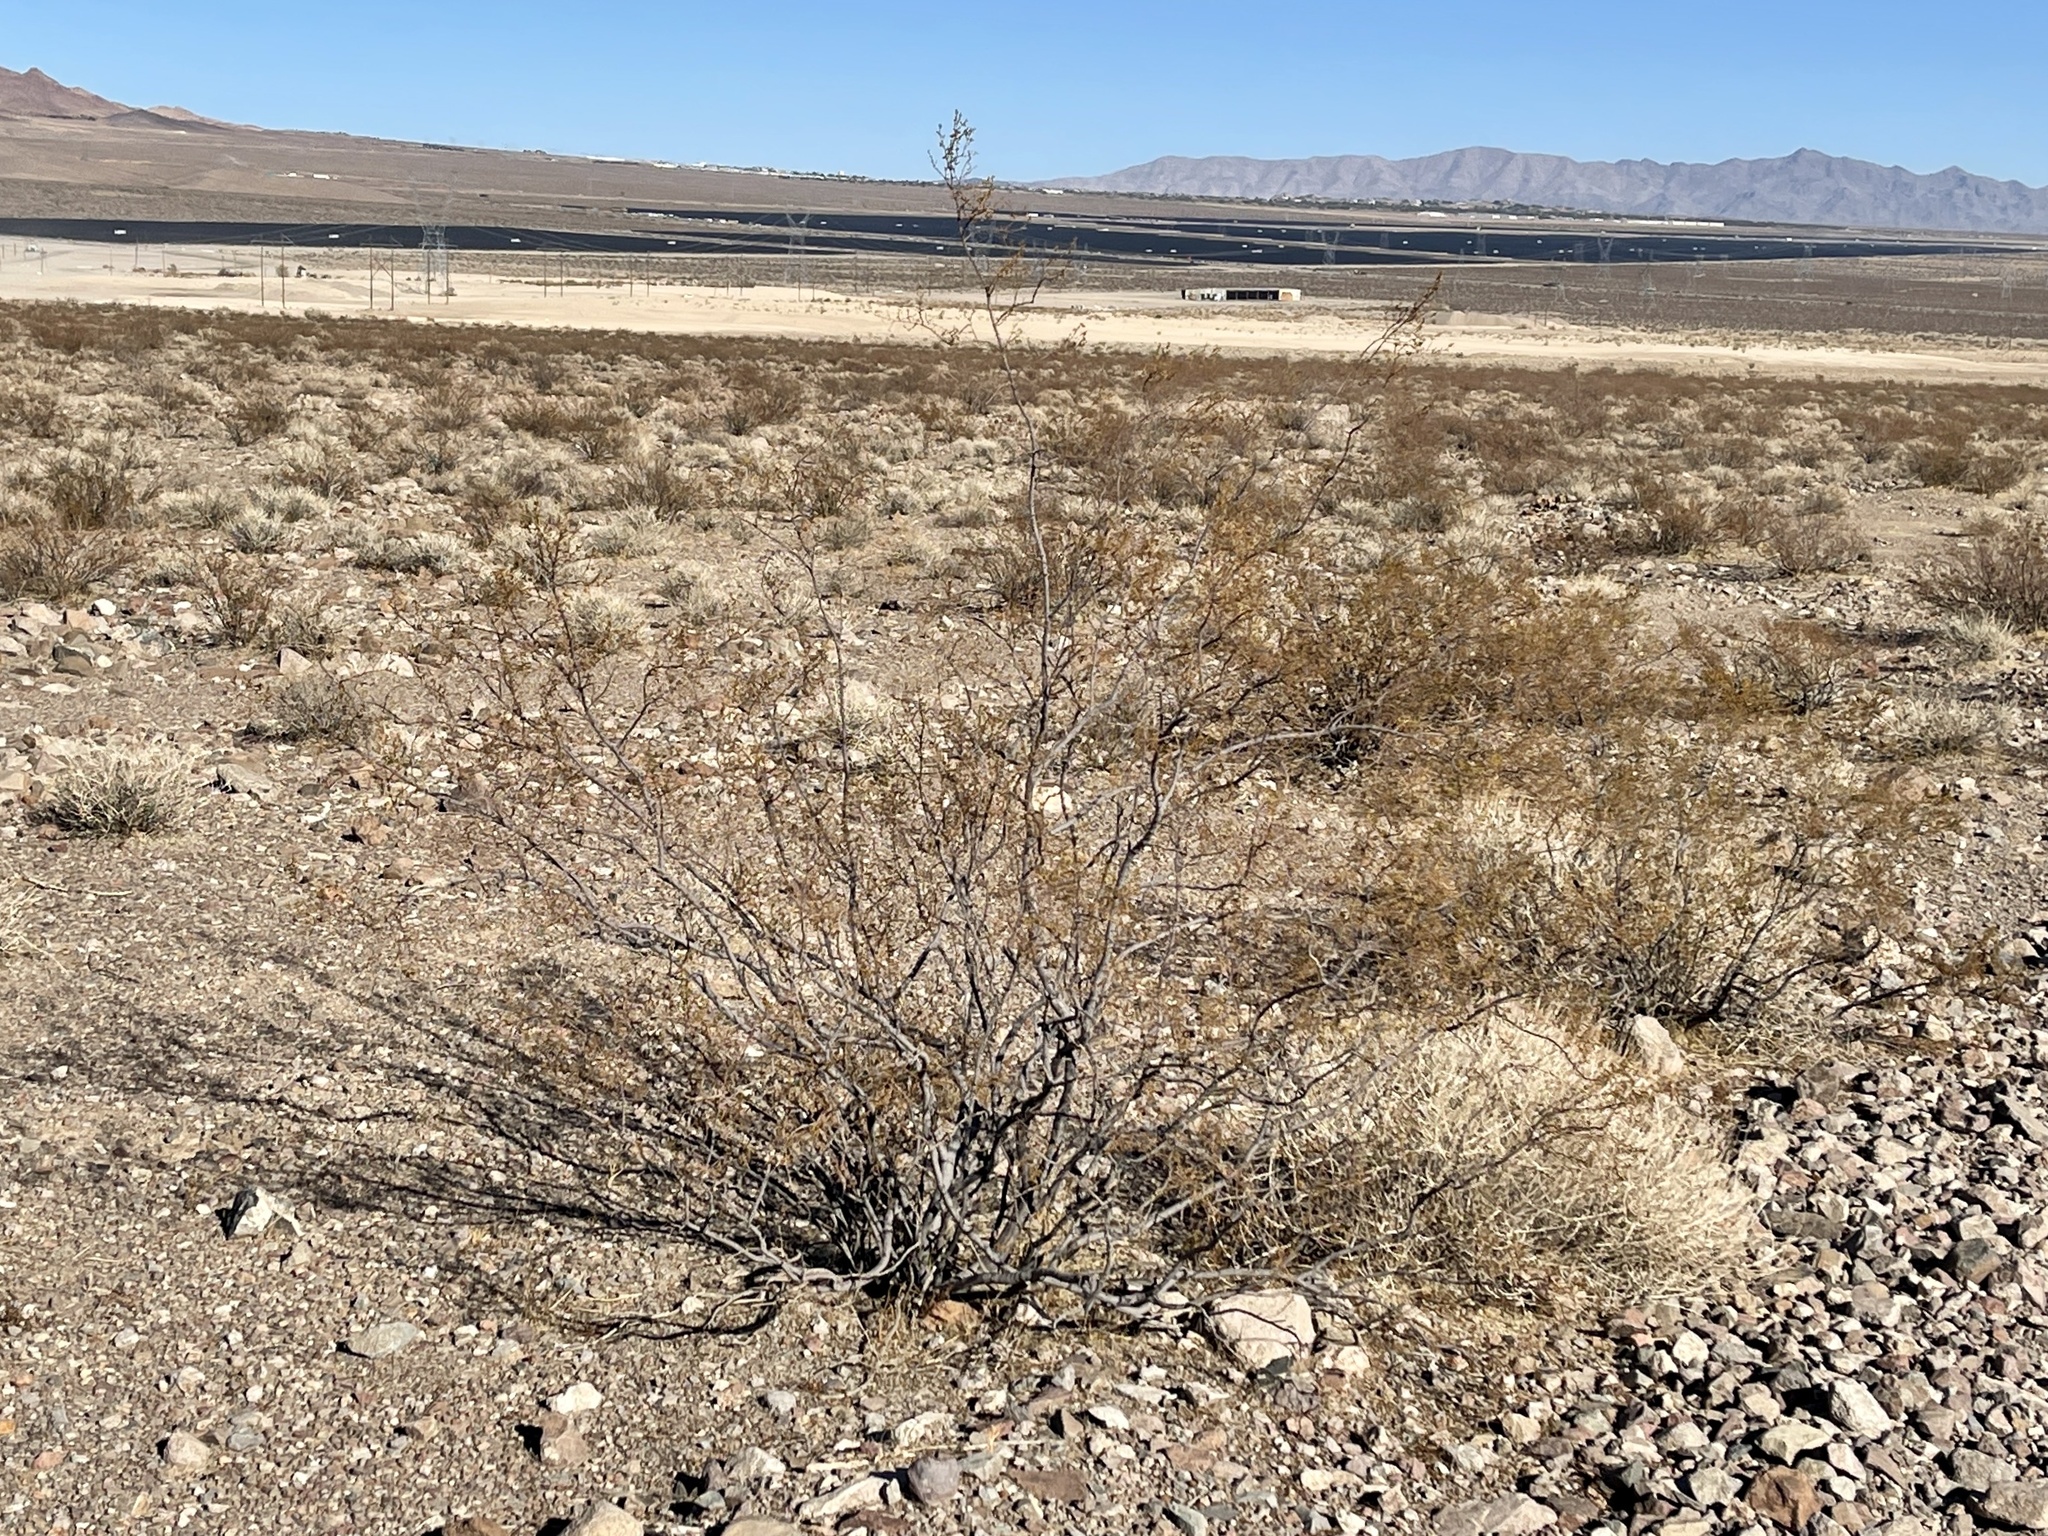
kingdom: Plantae
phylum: Tracheophyta
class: Magnoliopsida
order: Zygophyllales
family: Zygophyllaceae
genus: Larrea
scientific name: Larrea tridentata
